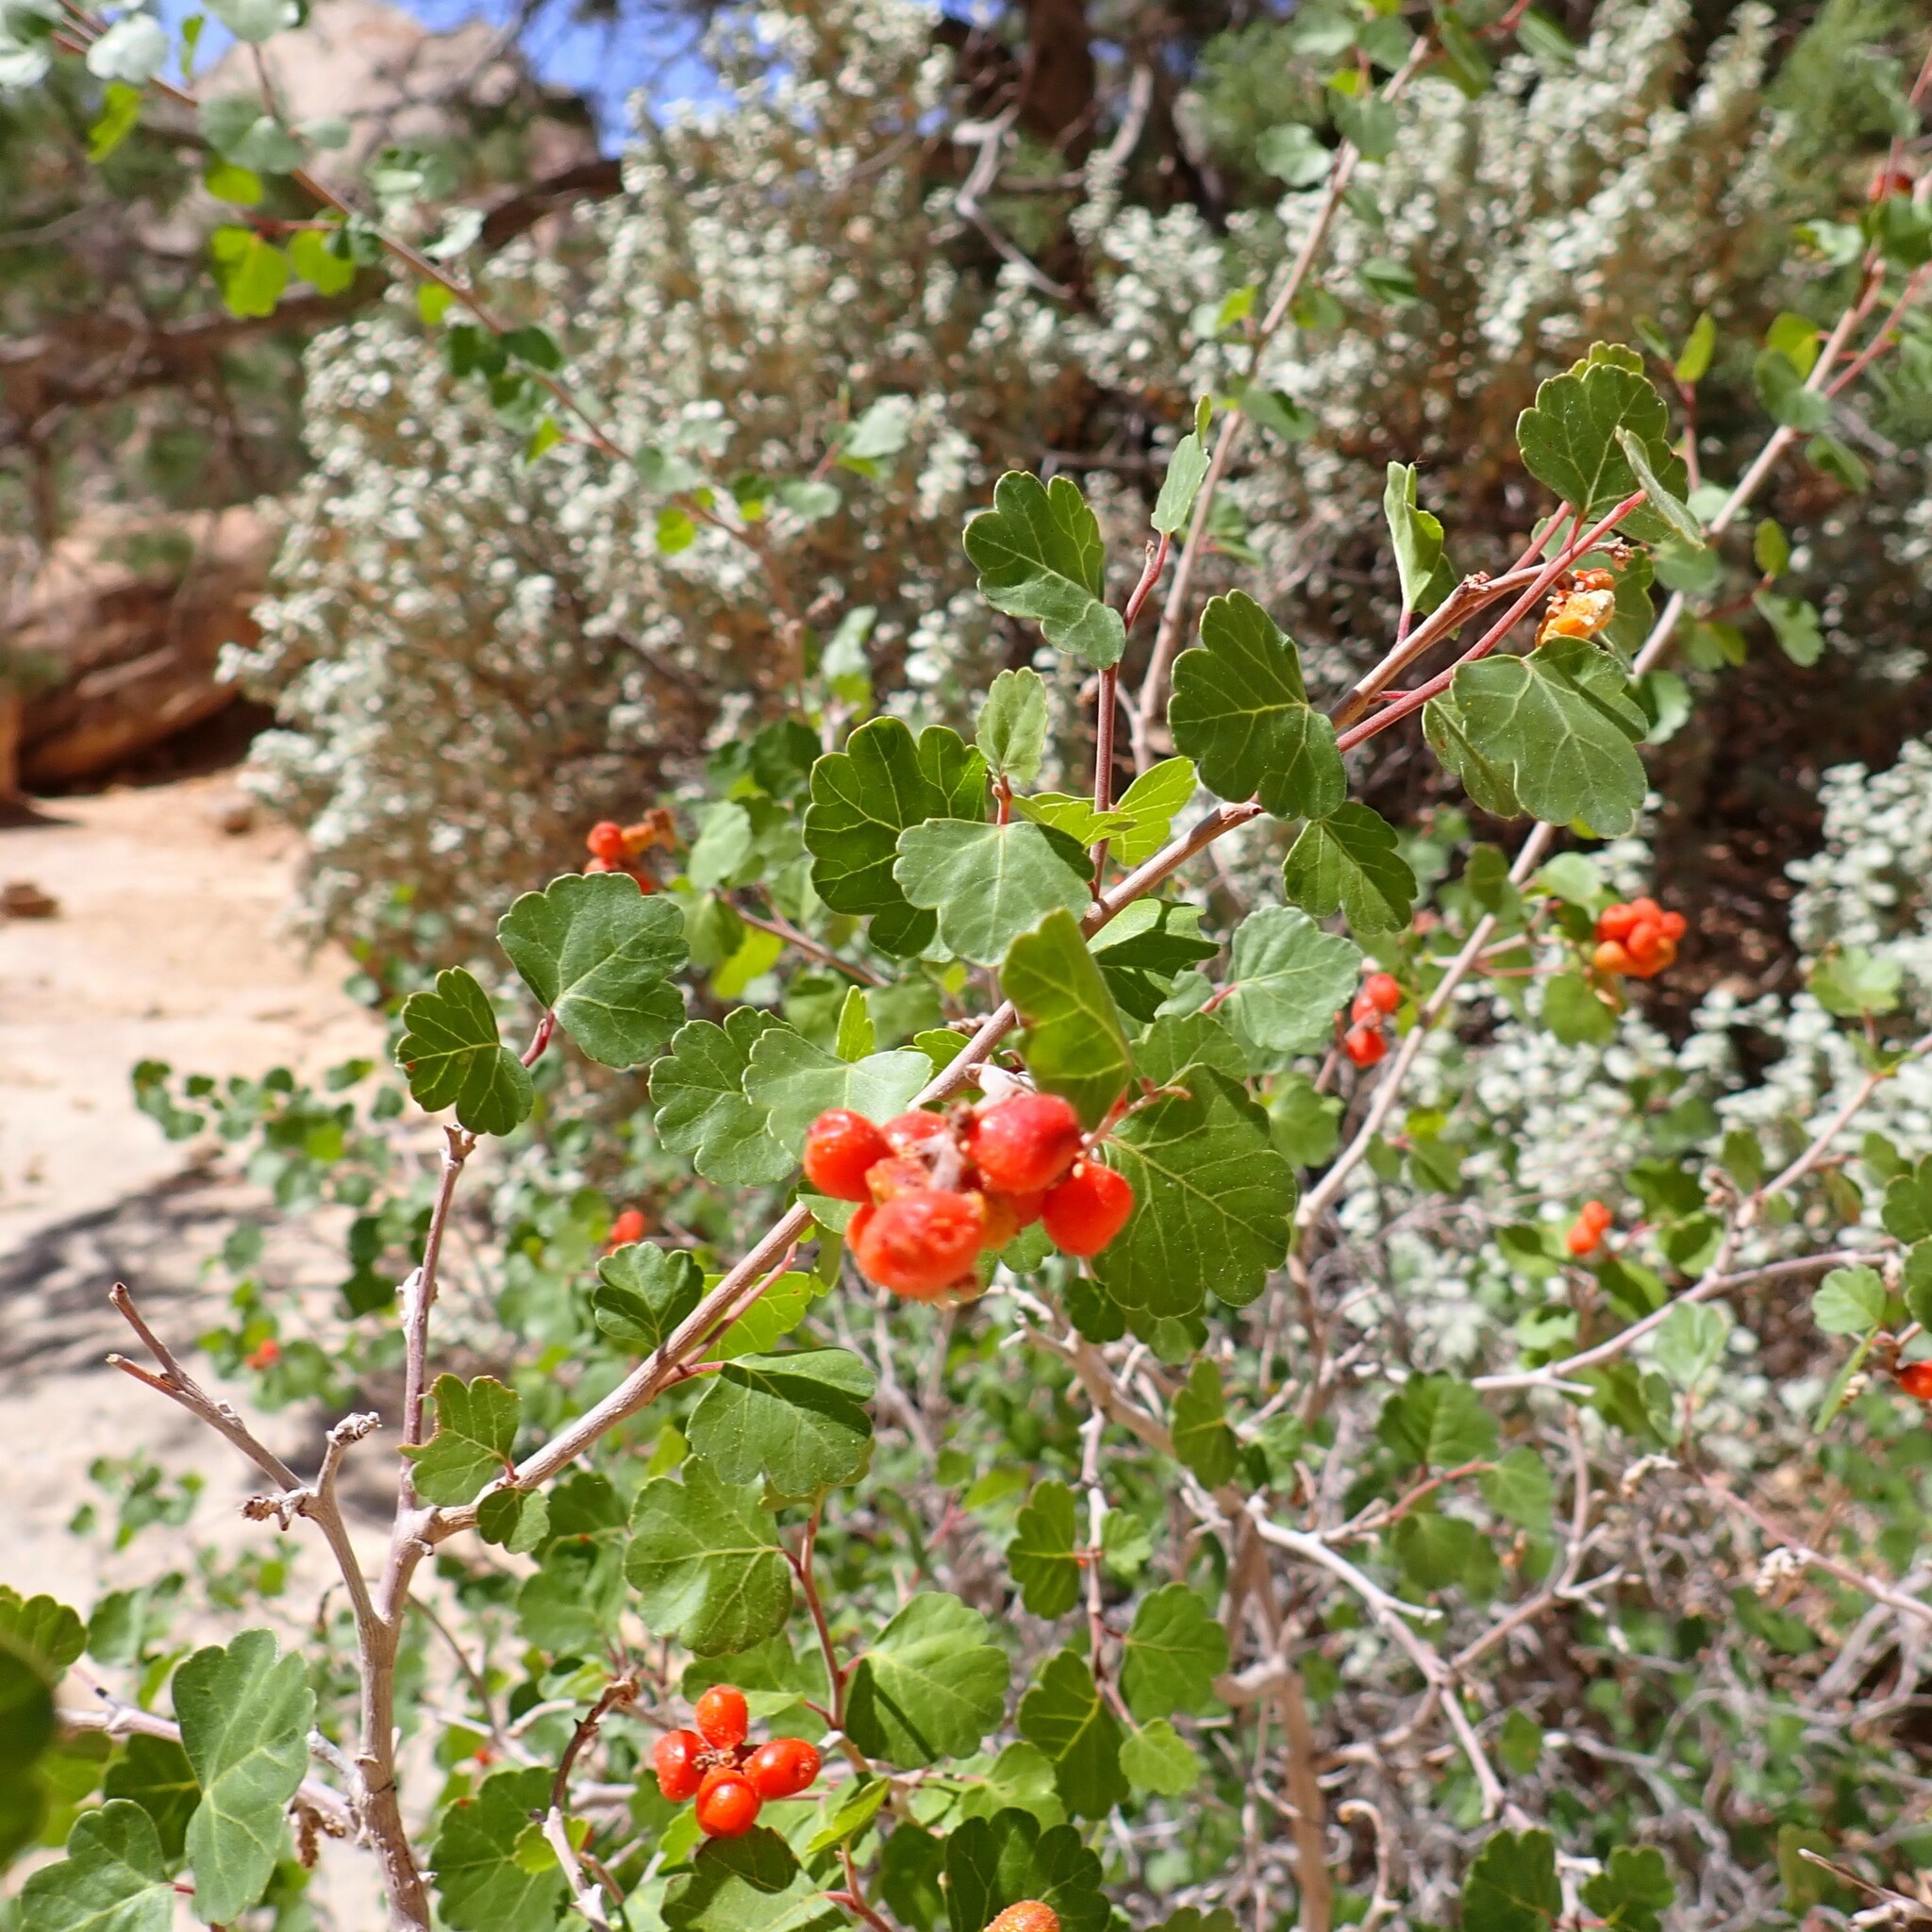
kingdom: Plantae
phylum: Tracheophyta
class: Magnoliopsida
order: Sapindales
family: Anacardiaceae
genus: Rhus
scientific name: Rhus trilobata
